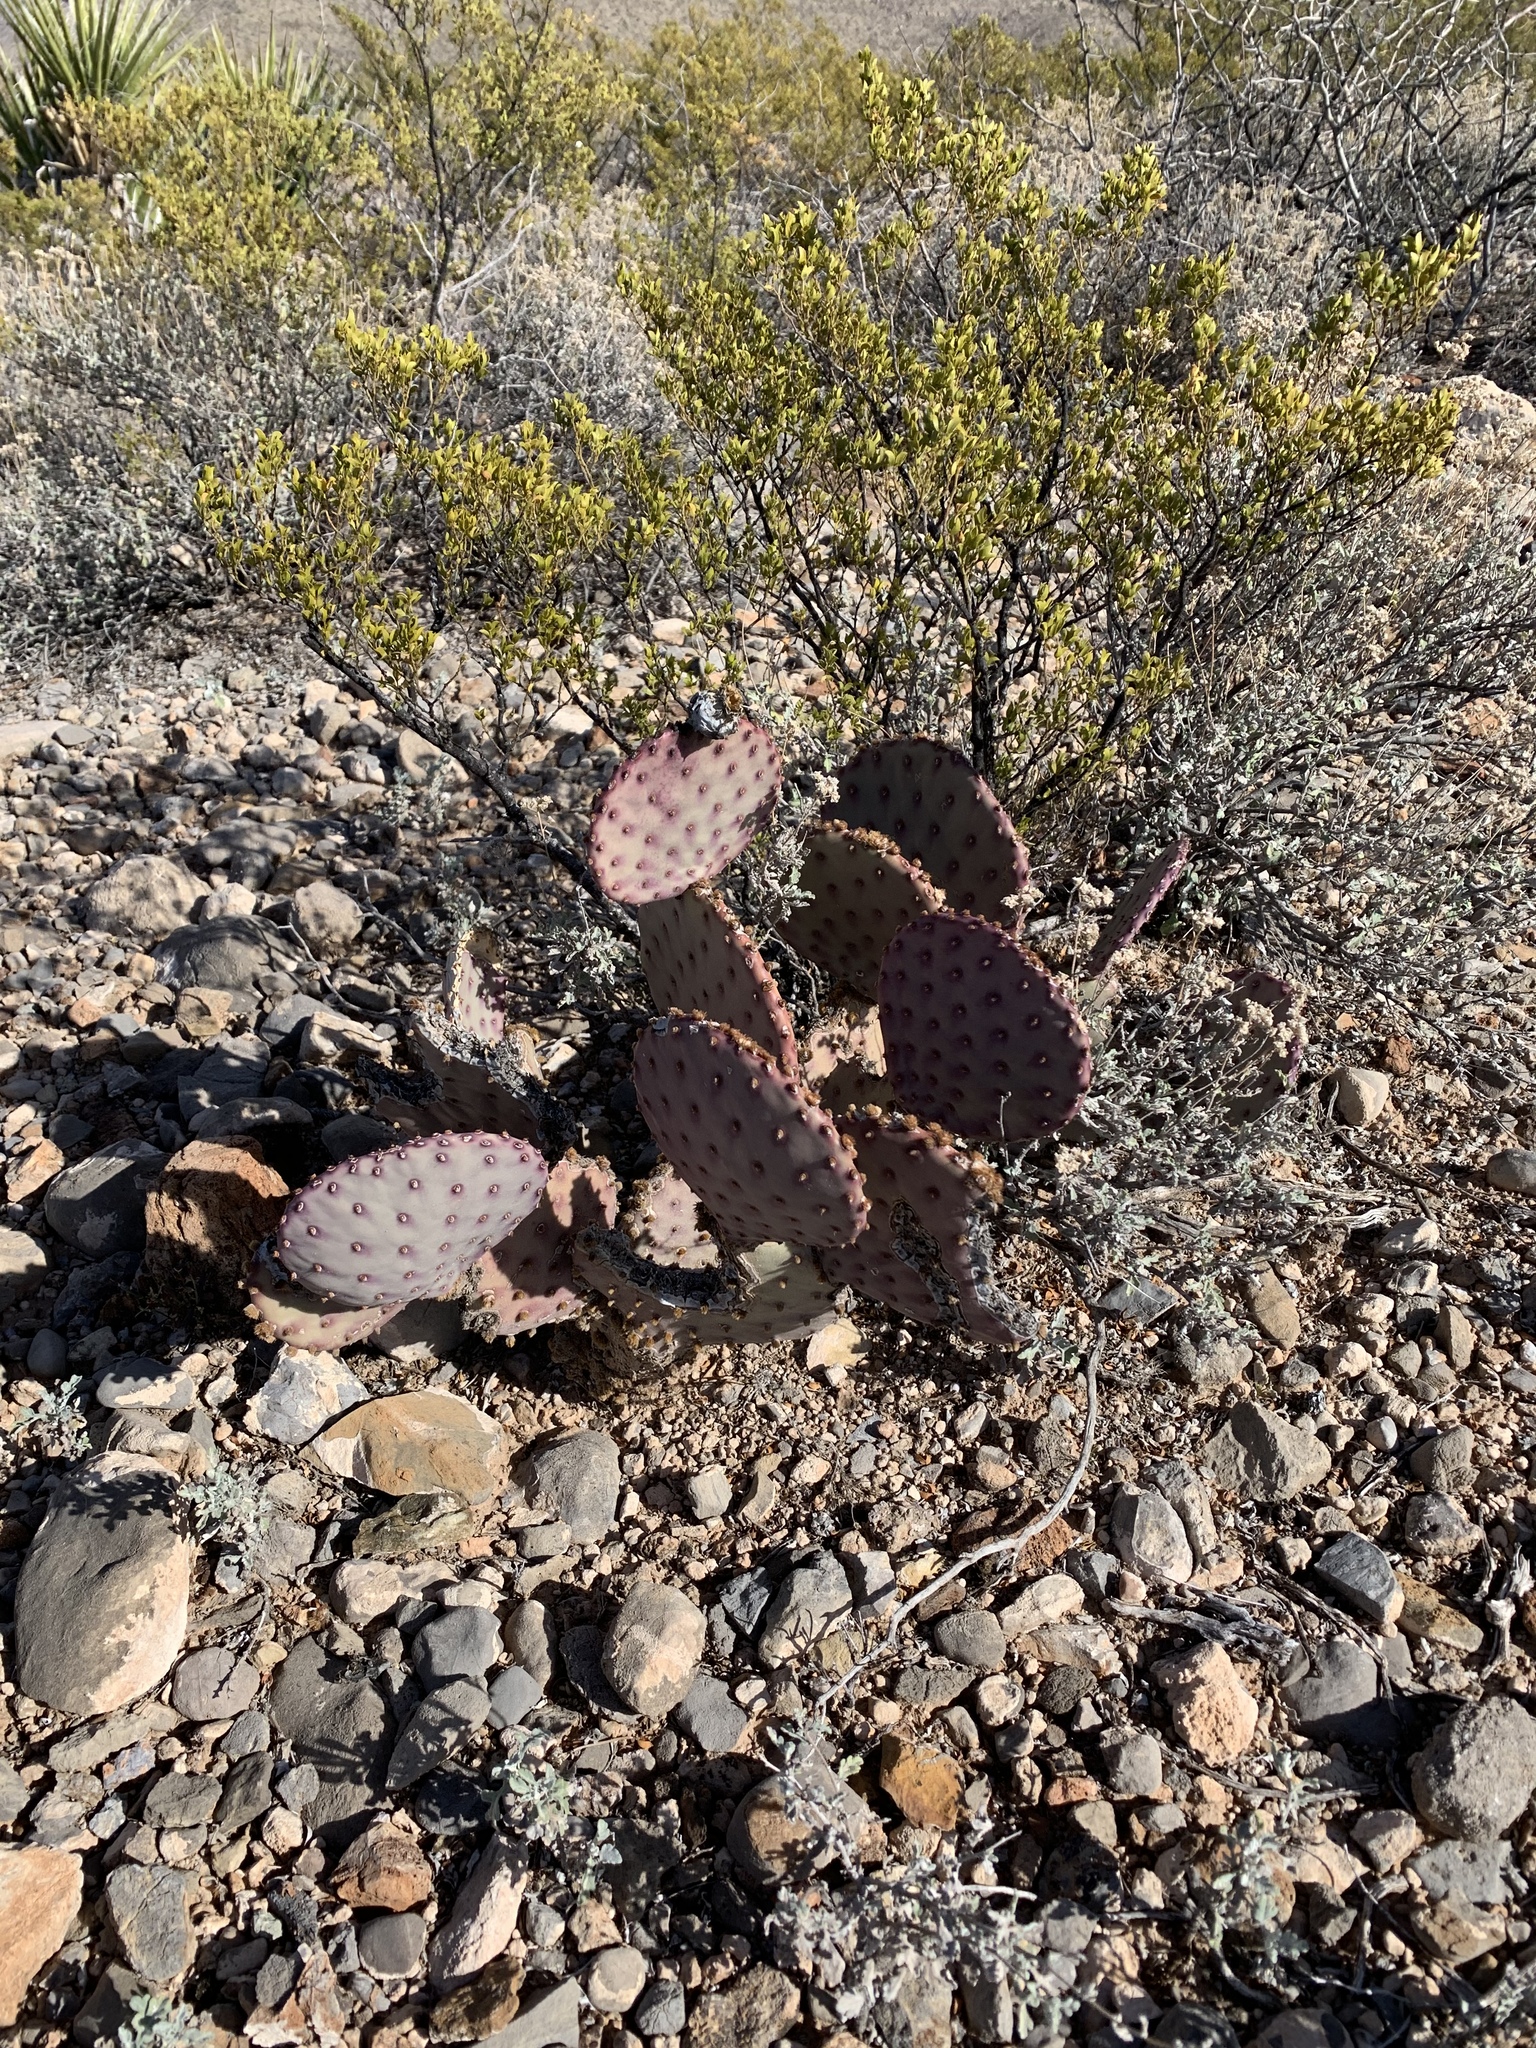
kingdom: Plantae
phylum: Tracheophyta
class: Magnoliopsida
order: Caryophyllales
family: Cactaceae
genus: Opuntia
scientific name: Opuntia macrocentra
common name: Purple prickly-pear
